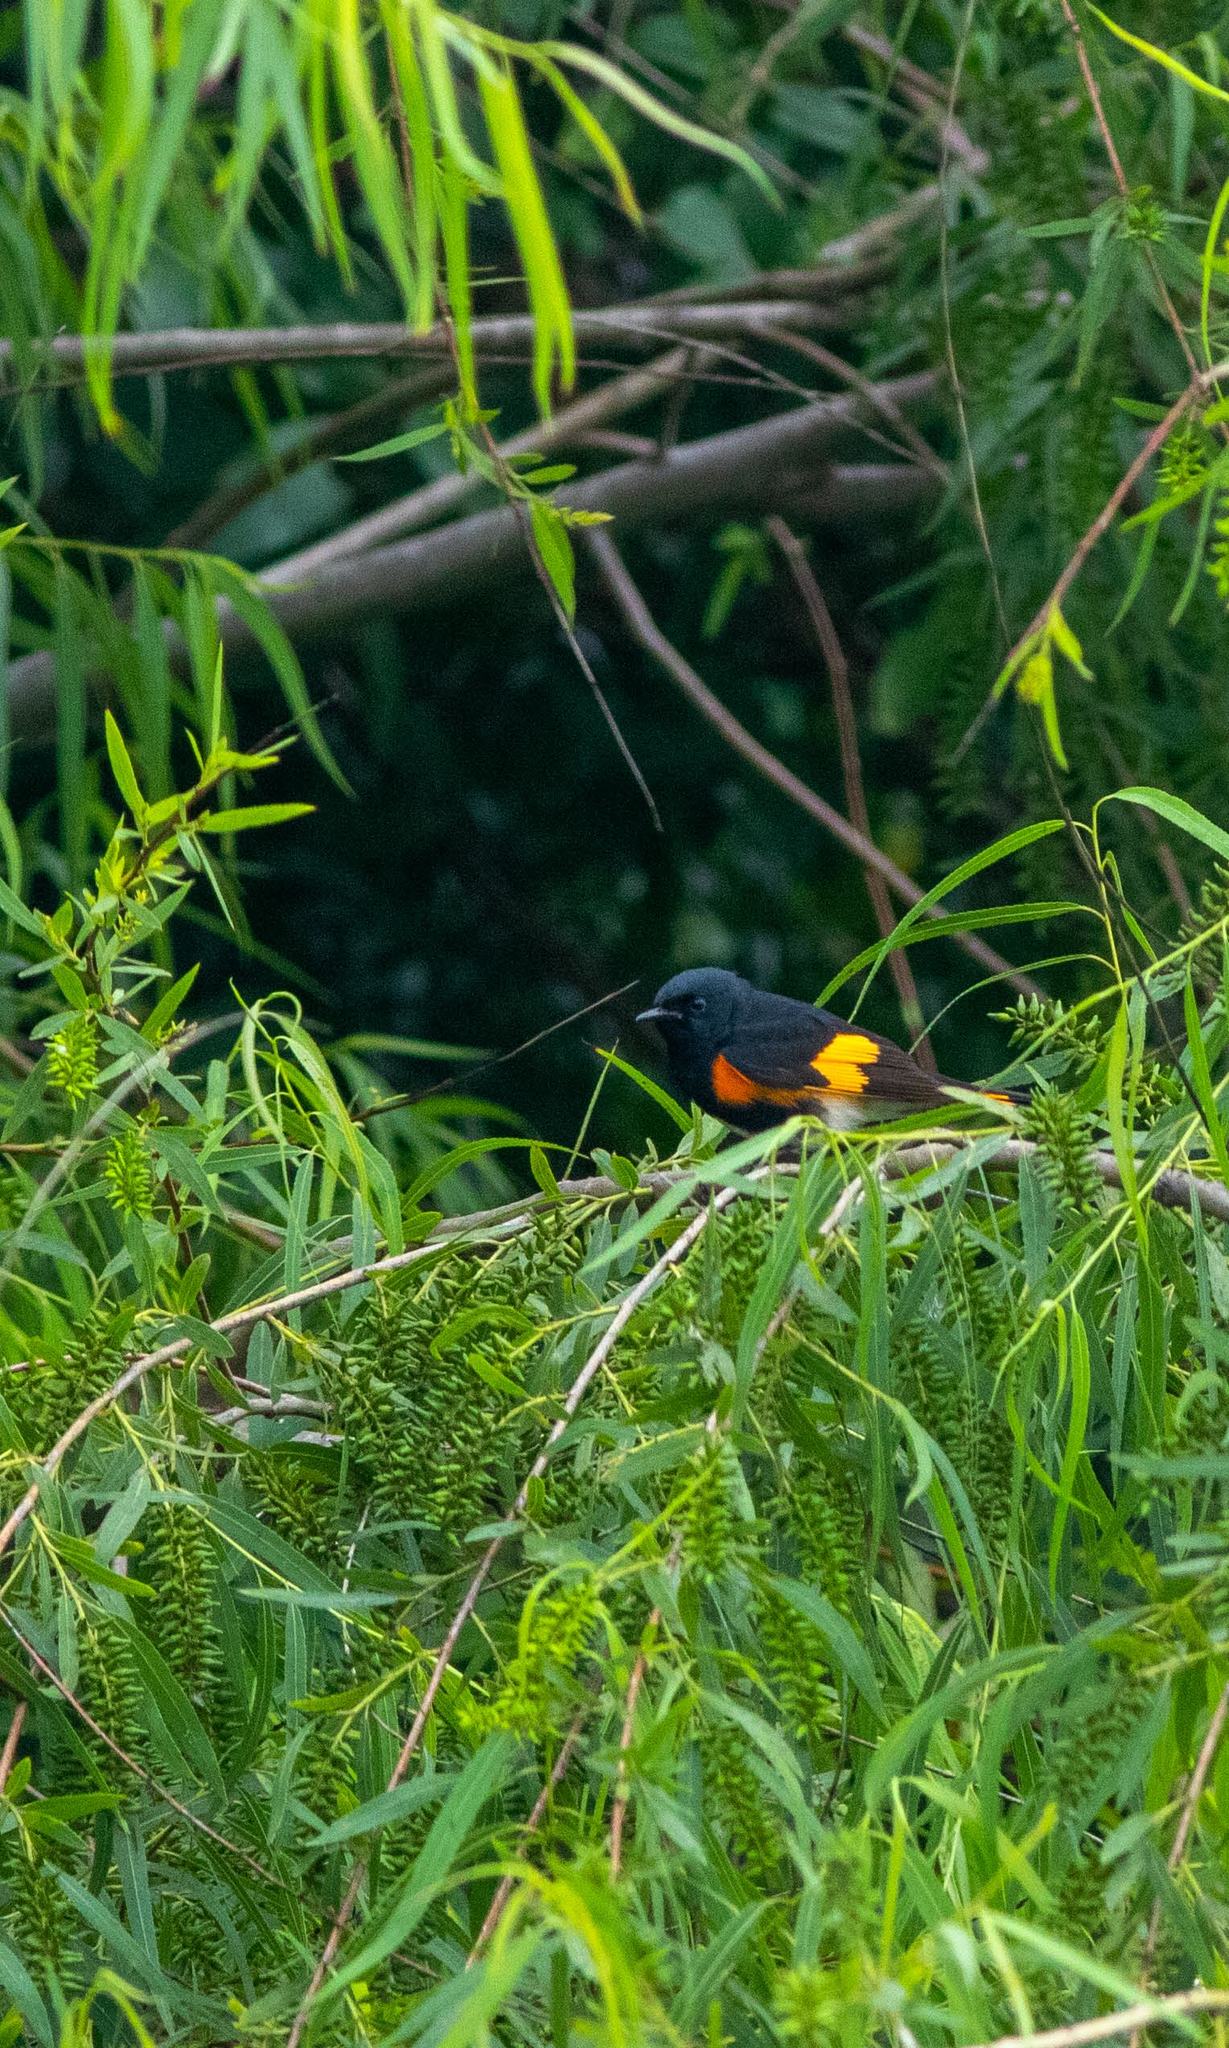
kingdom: Animalia
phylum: Chordata
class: Aves
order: Passeriformes
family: Parulidae
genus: Setophaga
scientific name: Setophaga ruticilla
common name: American redstart
